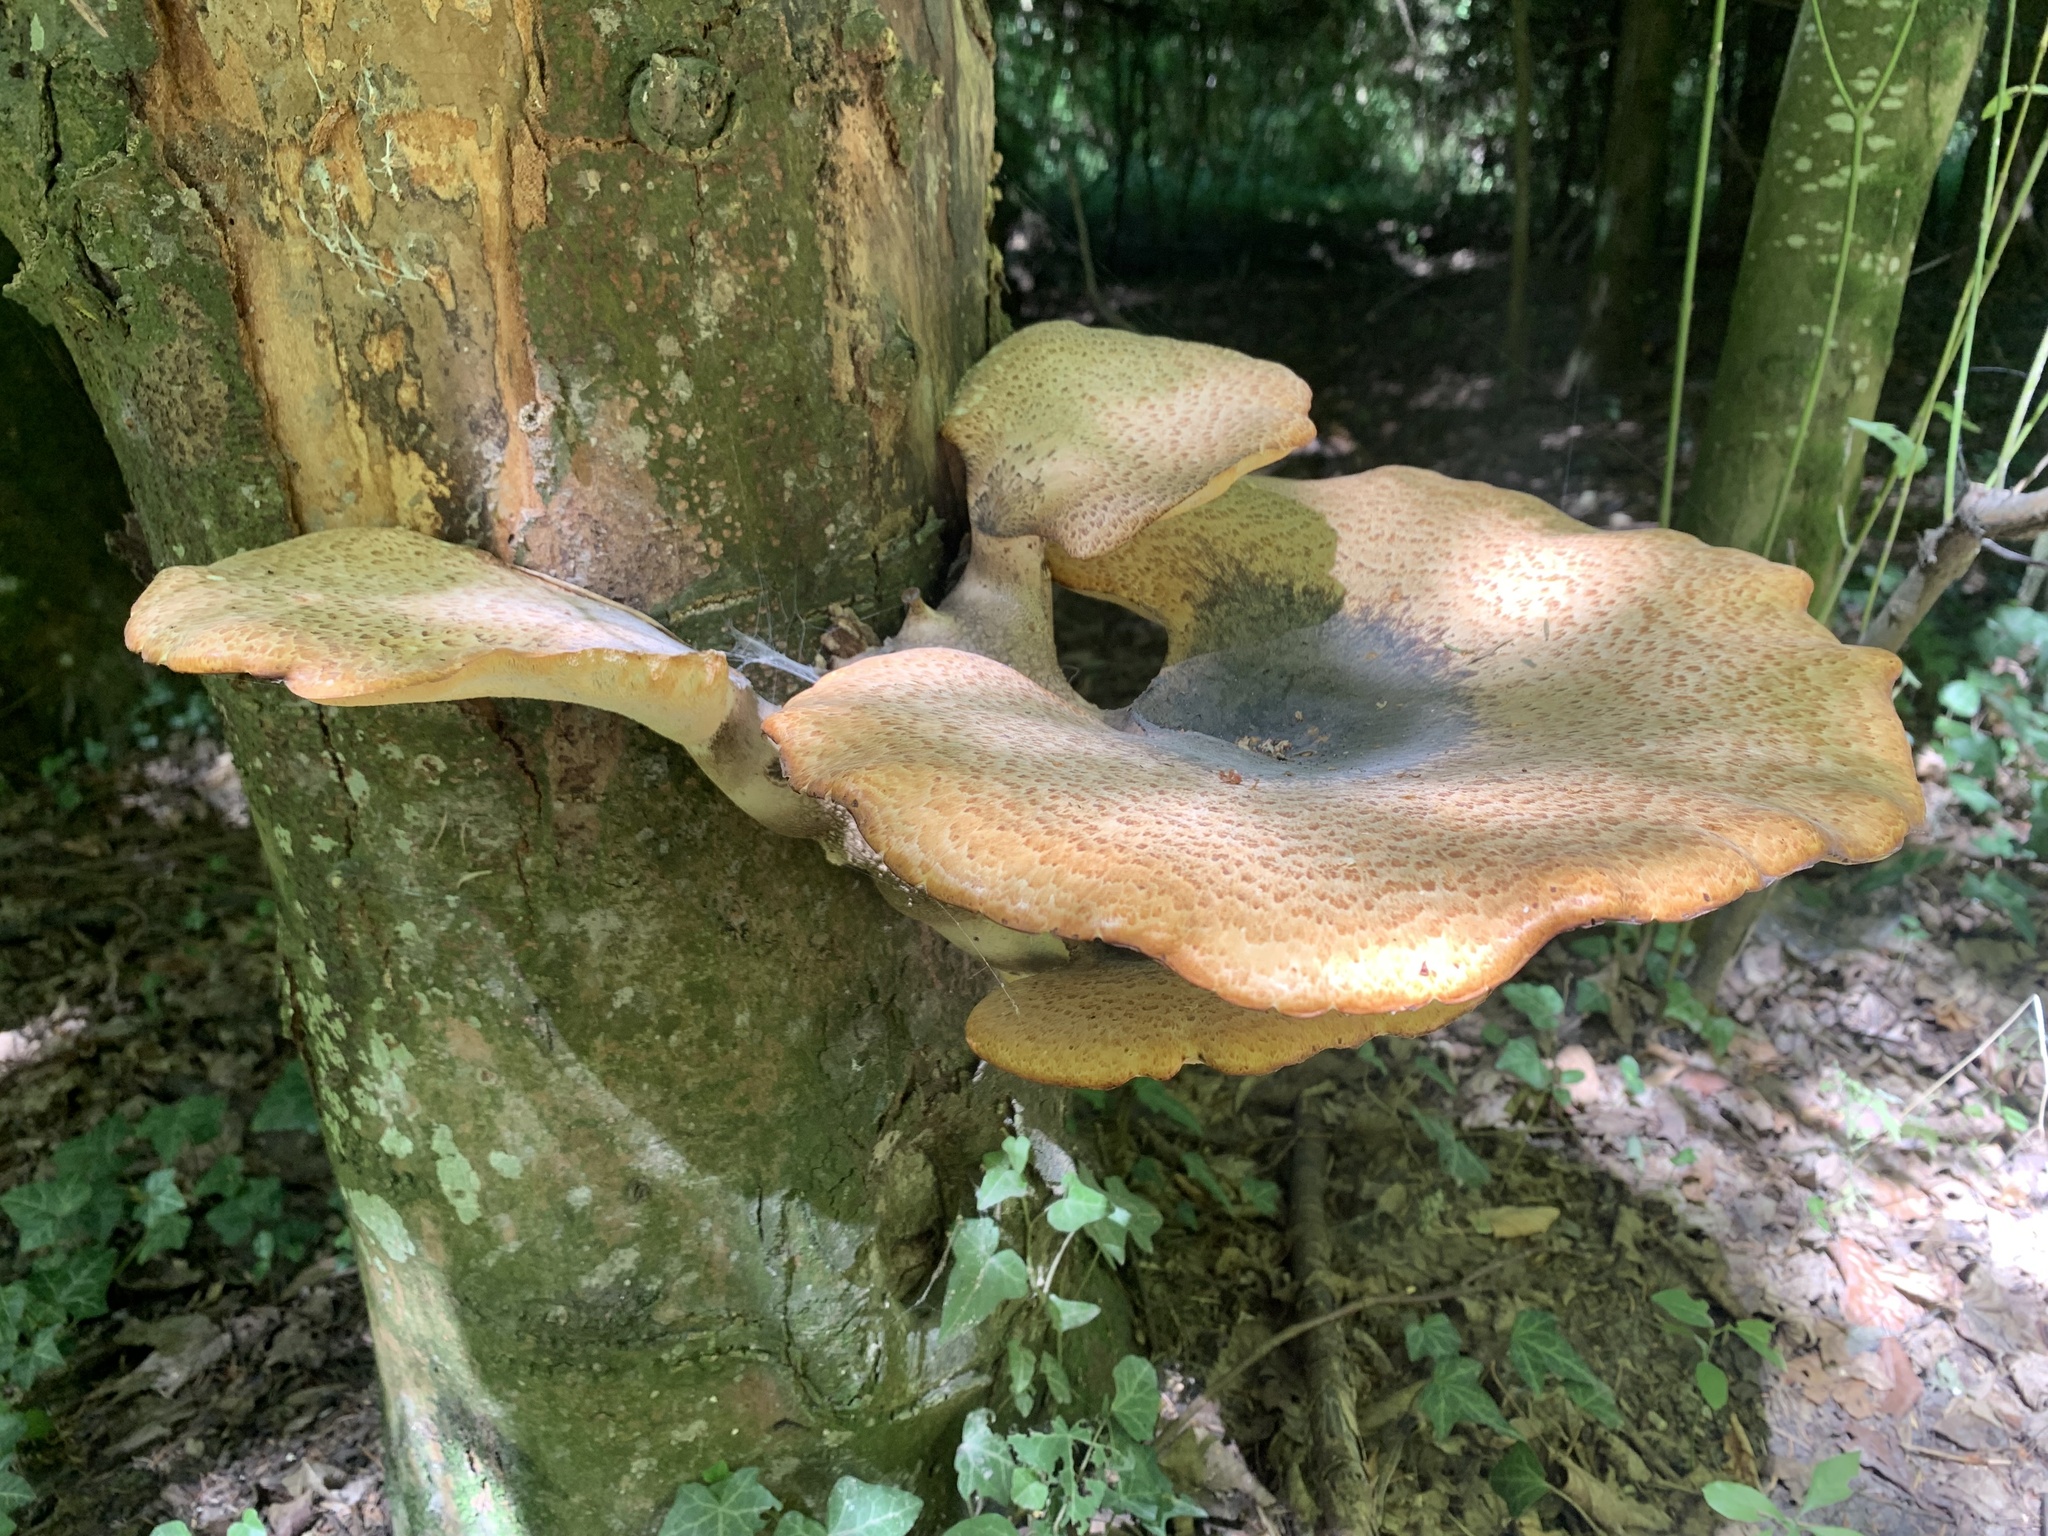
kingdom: Fungi
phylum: Basidiomycota
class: Agaricomycetes
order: Polyporales
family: Polyporaceae
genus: Cerioporus
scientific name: Cerioporus squamosus
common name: Dryad's saddle
